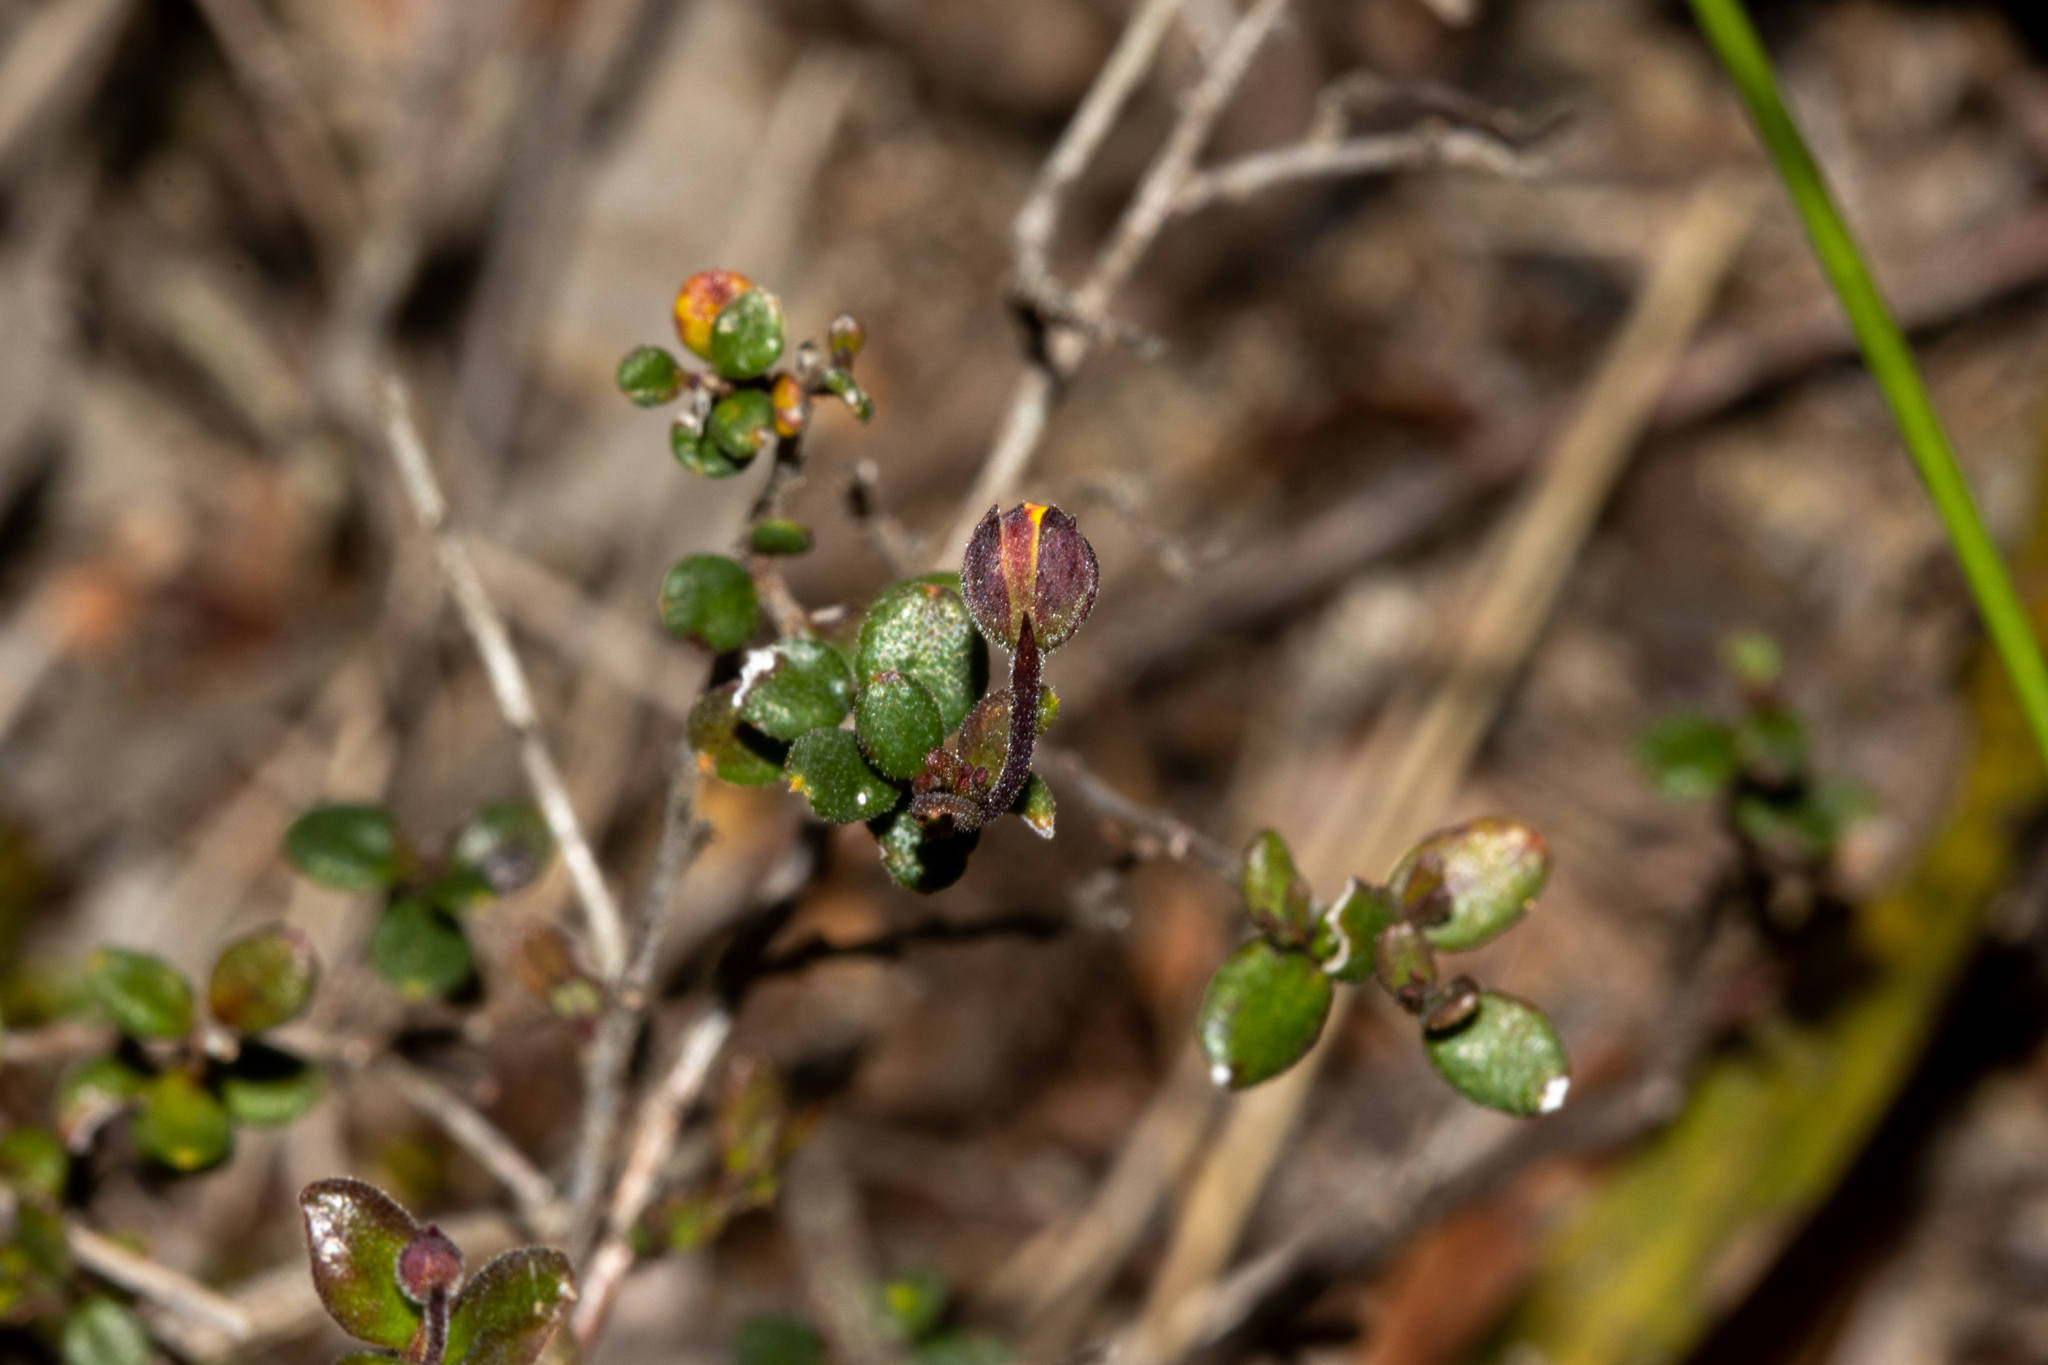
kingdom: Plantae
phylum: Tracheophyta
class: Magnoliopsida
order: Dilleniales
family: Dilleniaceae
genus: Hibbertia
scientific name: Hibbertia decumbens
